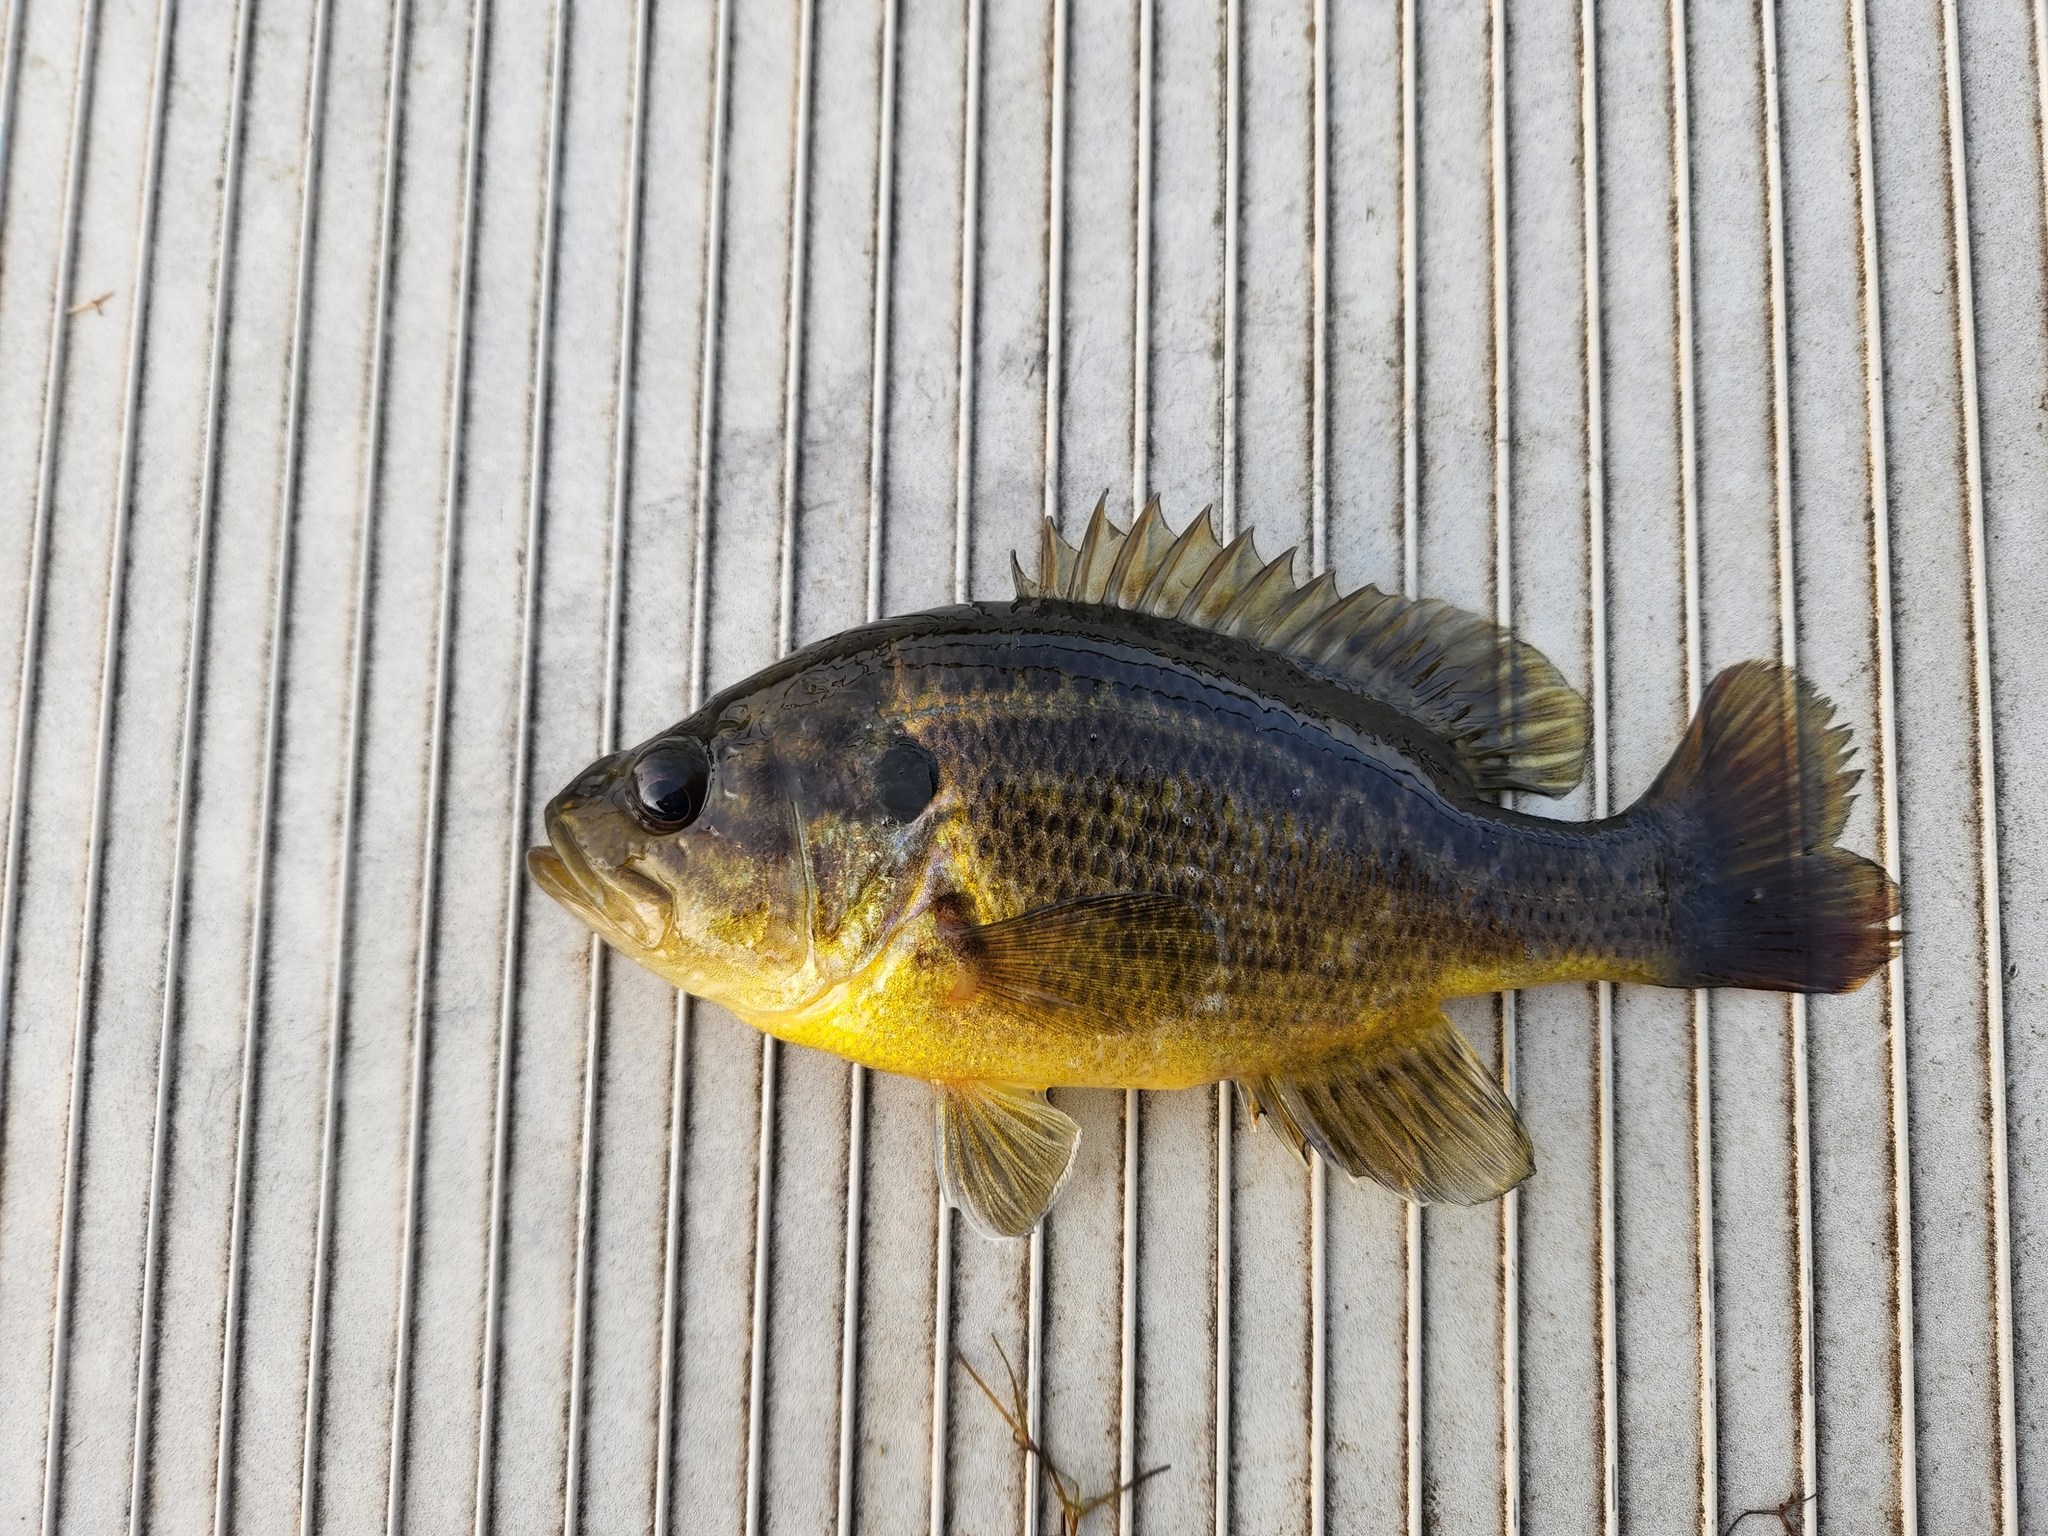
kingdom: Animalia
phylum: Chordata
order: Perciformes
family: Centrarchidae
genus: Lepomis
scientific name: Lepomis gulosus
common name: Warmouth
